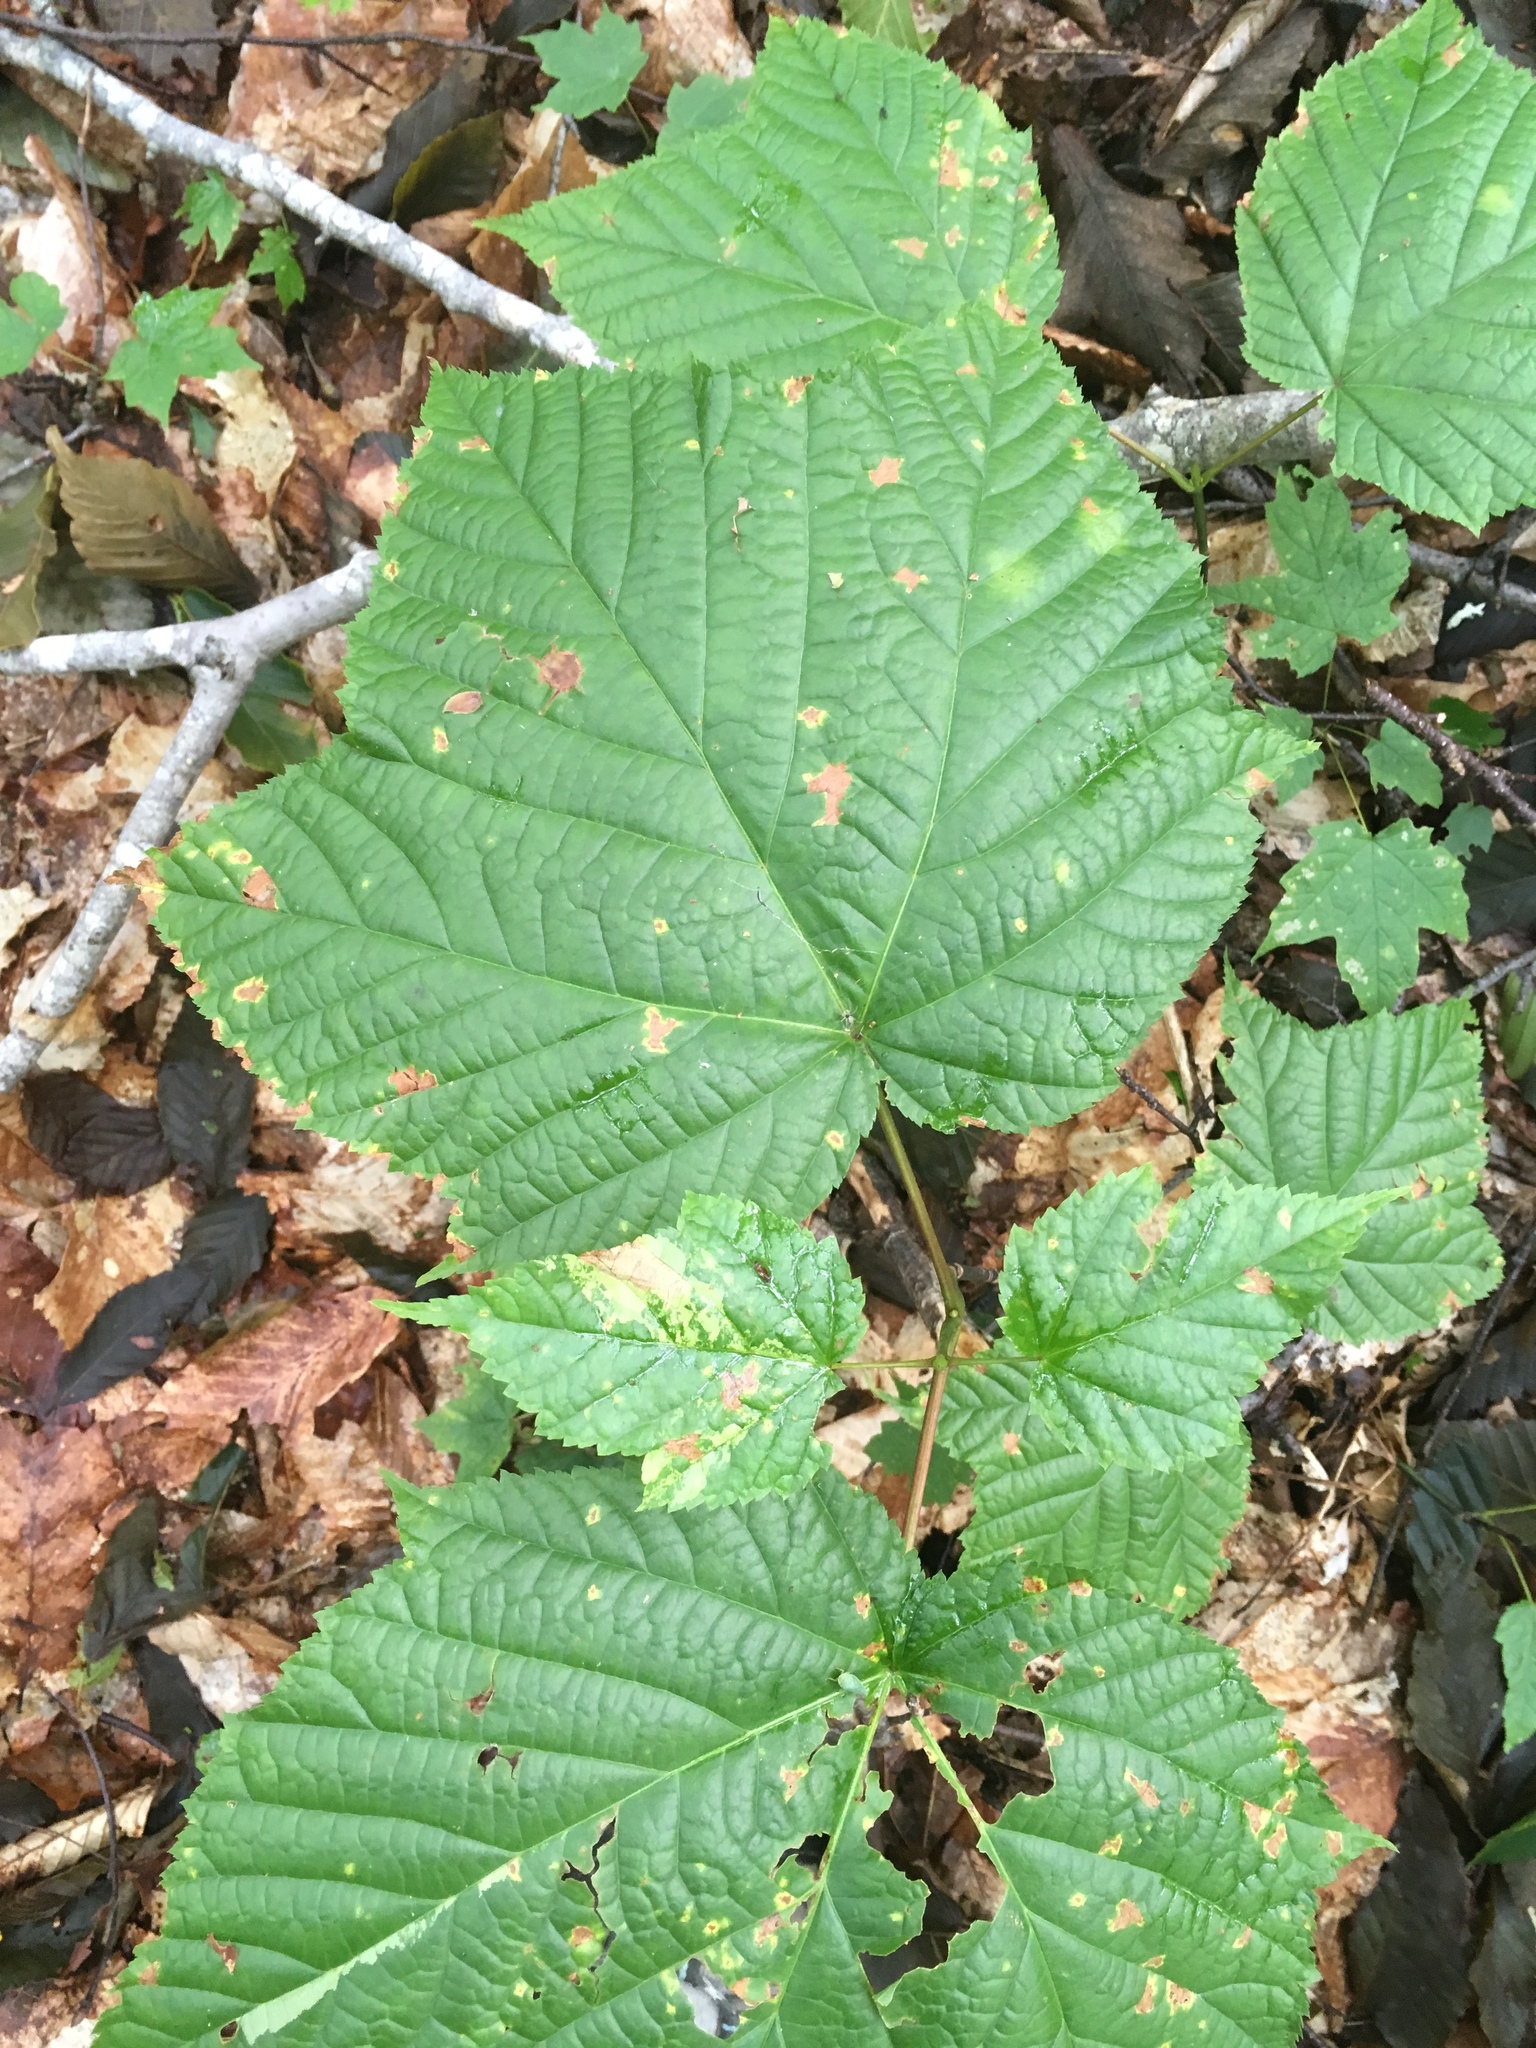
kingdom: Plantae
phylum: Tracheophyta
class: Magnoliopsida
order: Sapindales
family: Sapindaceae
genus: Acer
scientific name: Acer pensylvanicum
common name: Moosewood
